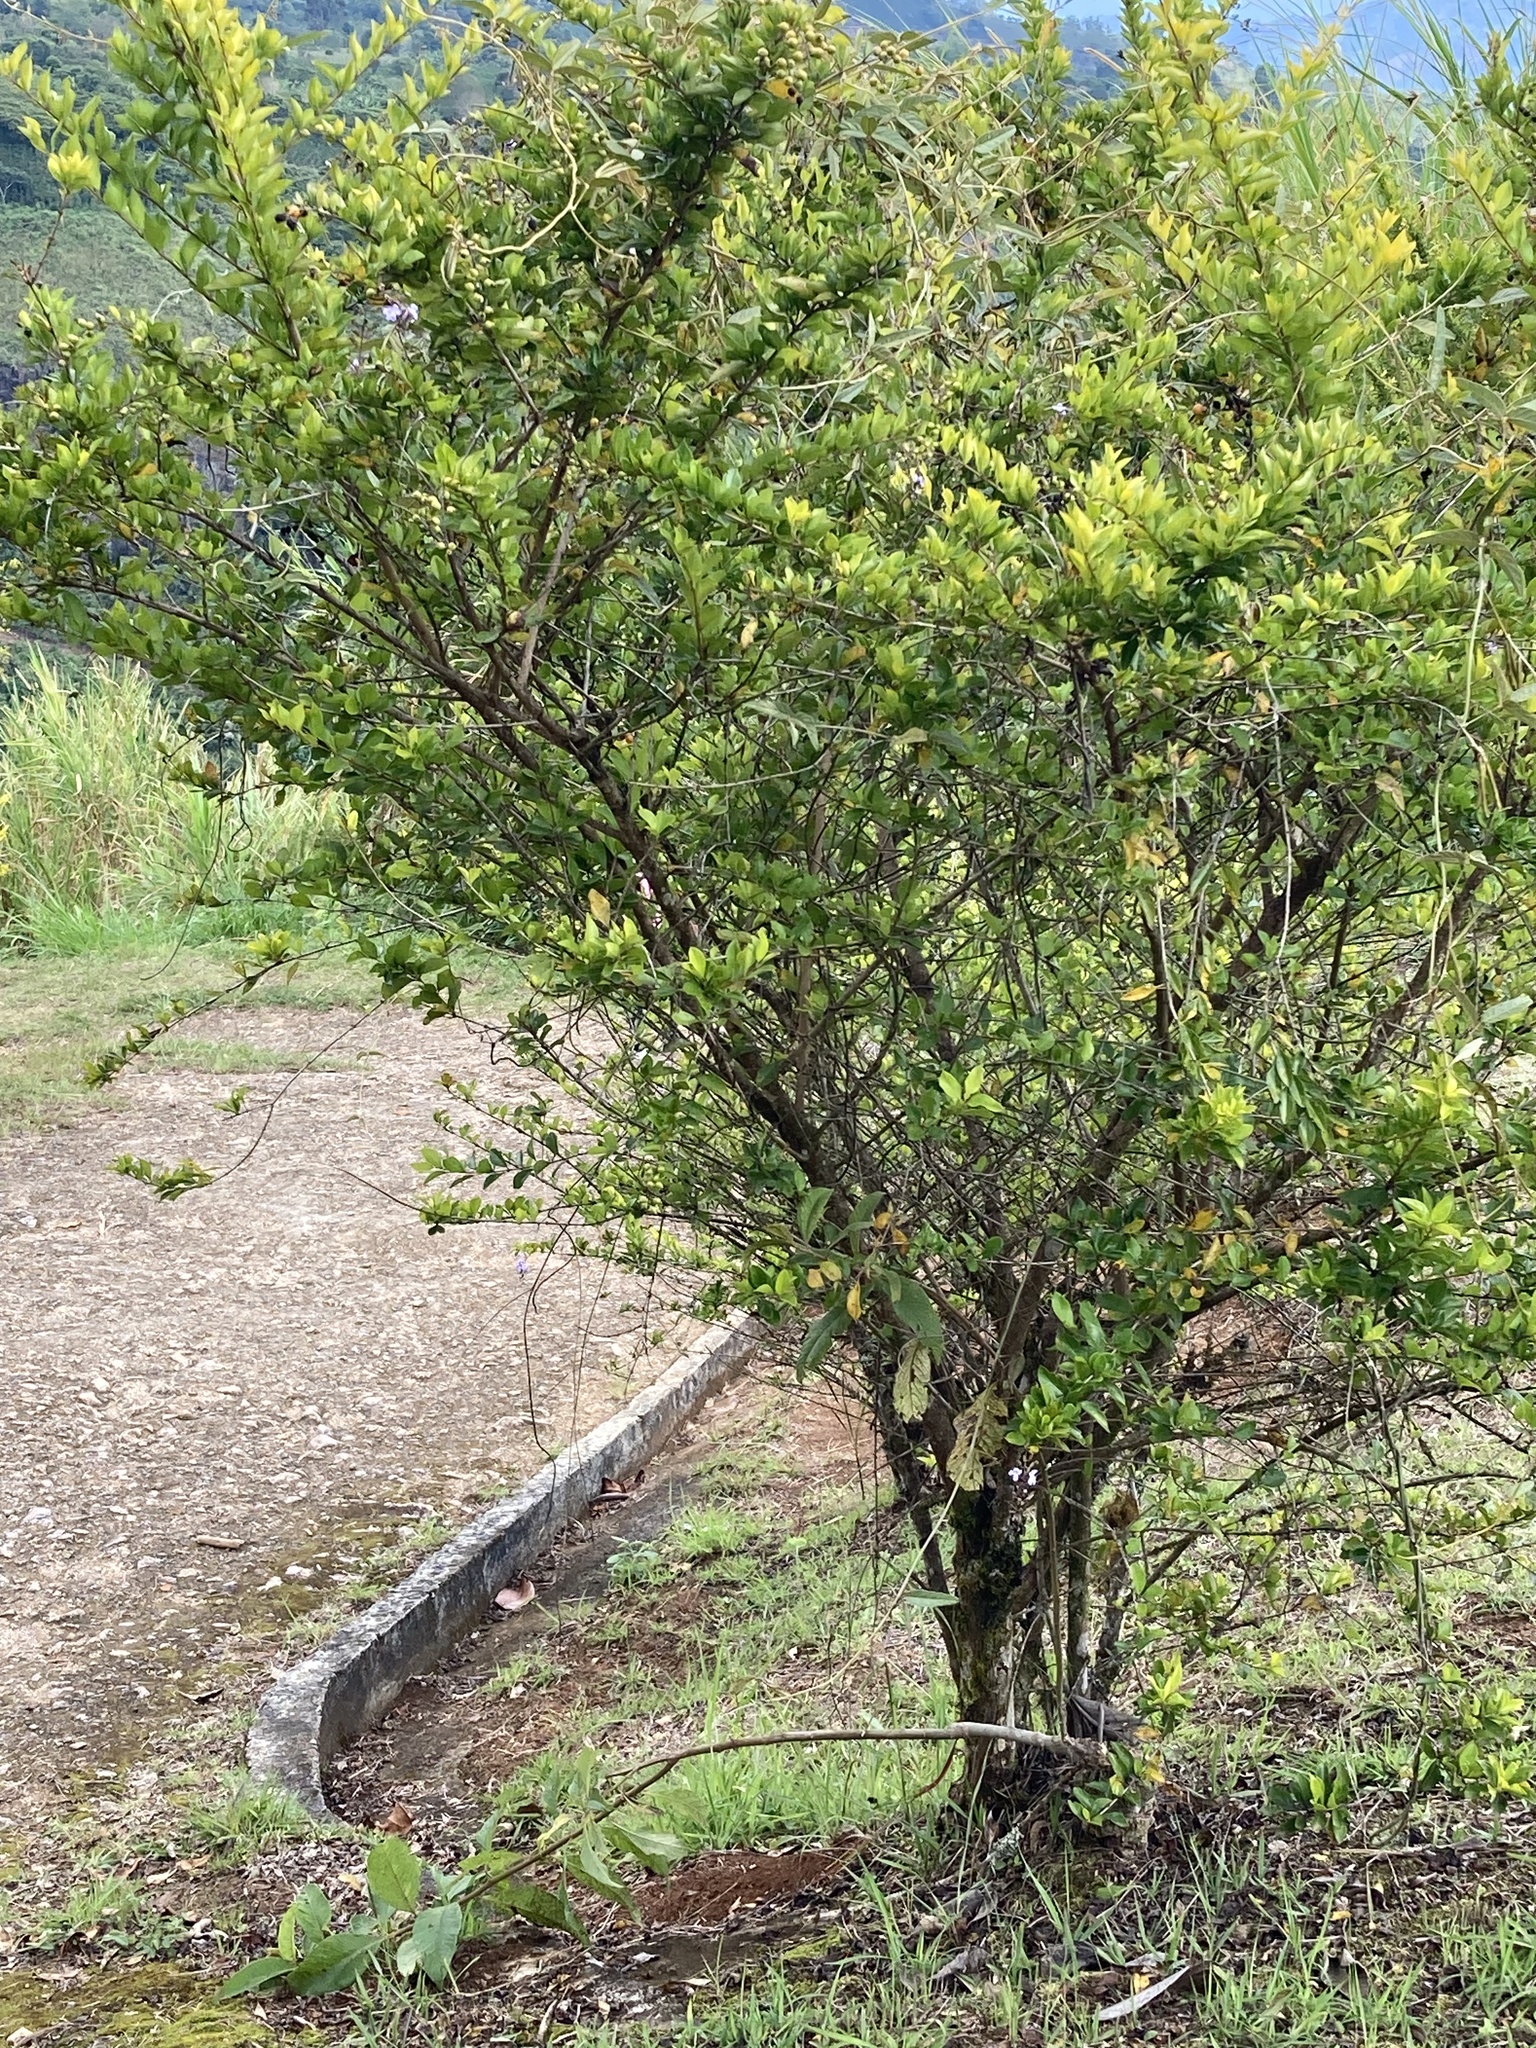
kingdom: Plantae
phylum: Tracheophyta
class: Magnoliopsida
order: Lamiales
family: Verbenaceae
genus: Duranta
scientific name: Duranta erecta
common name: Golden dewdrops
